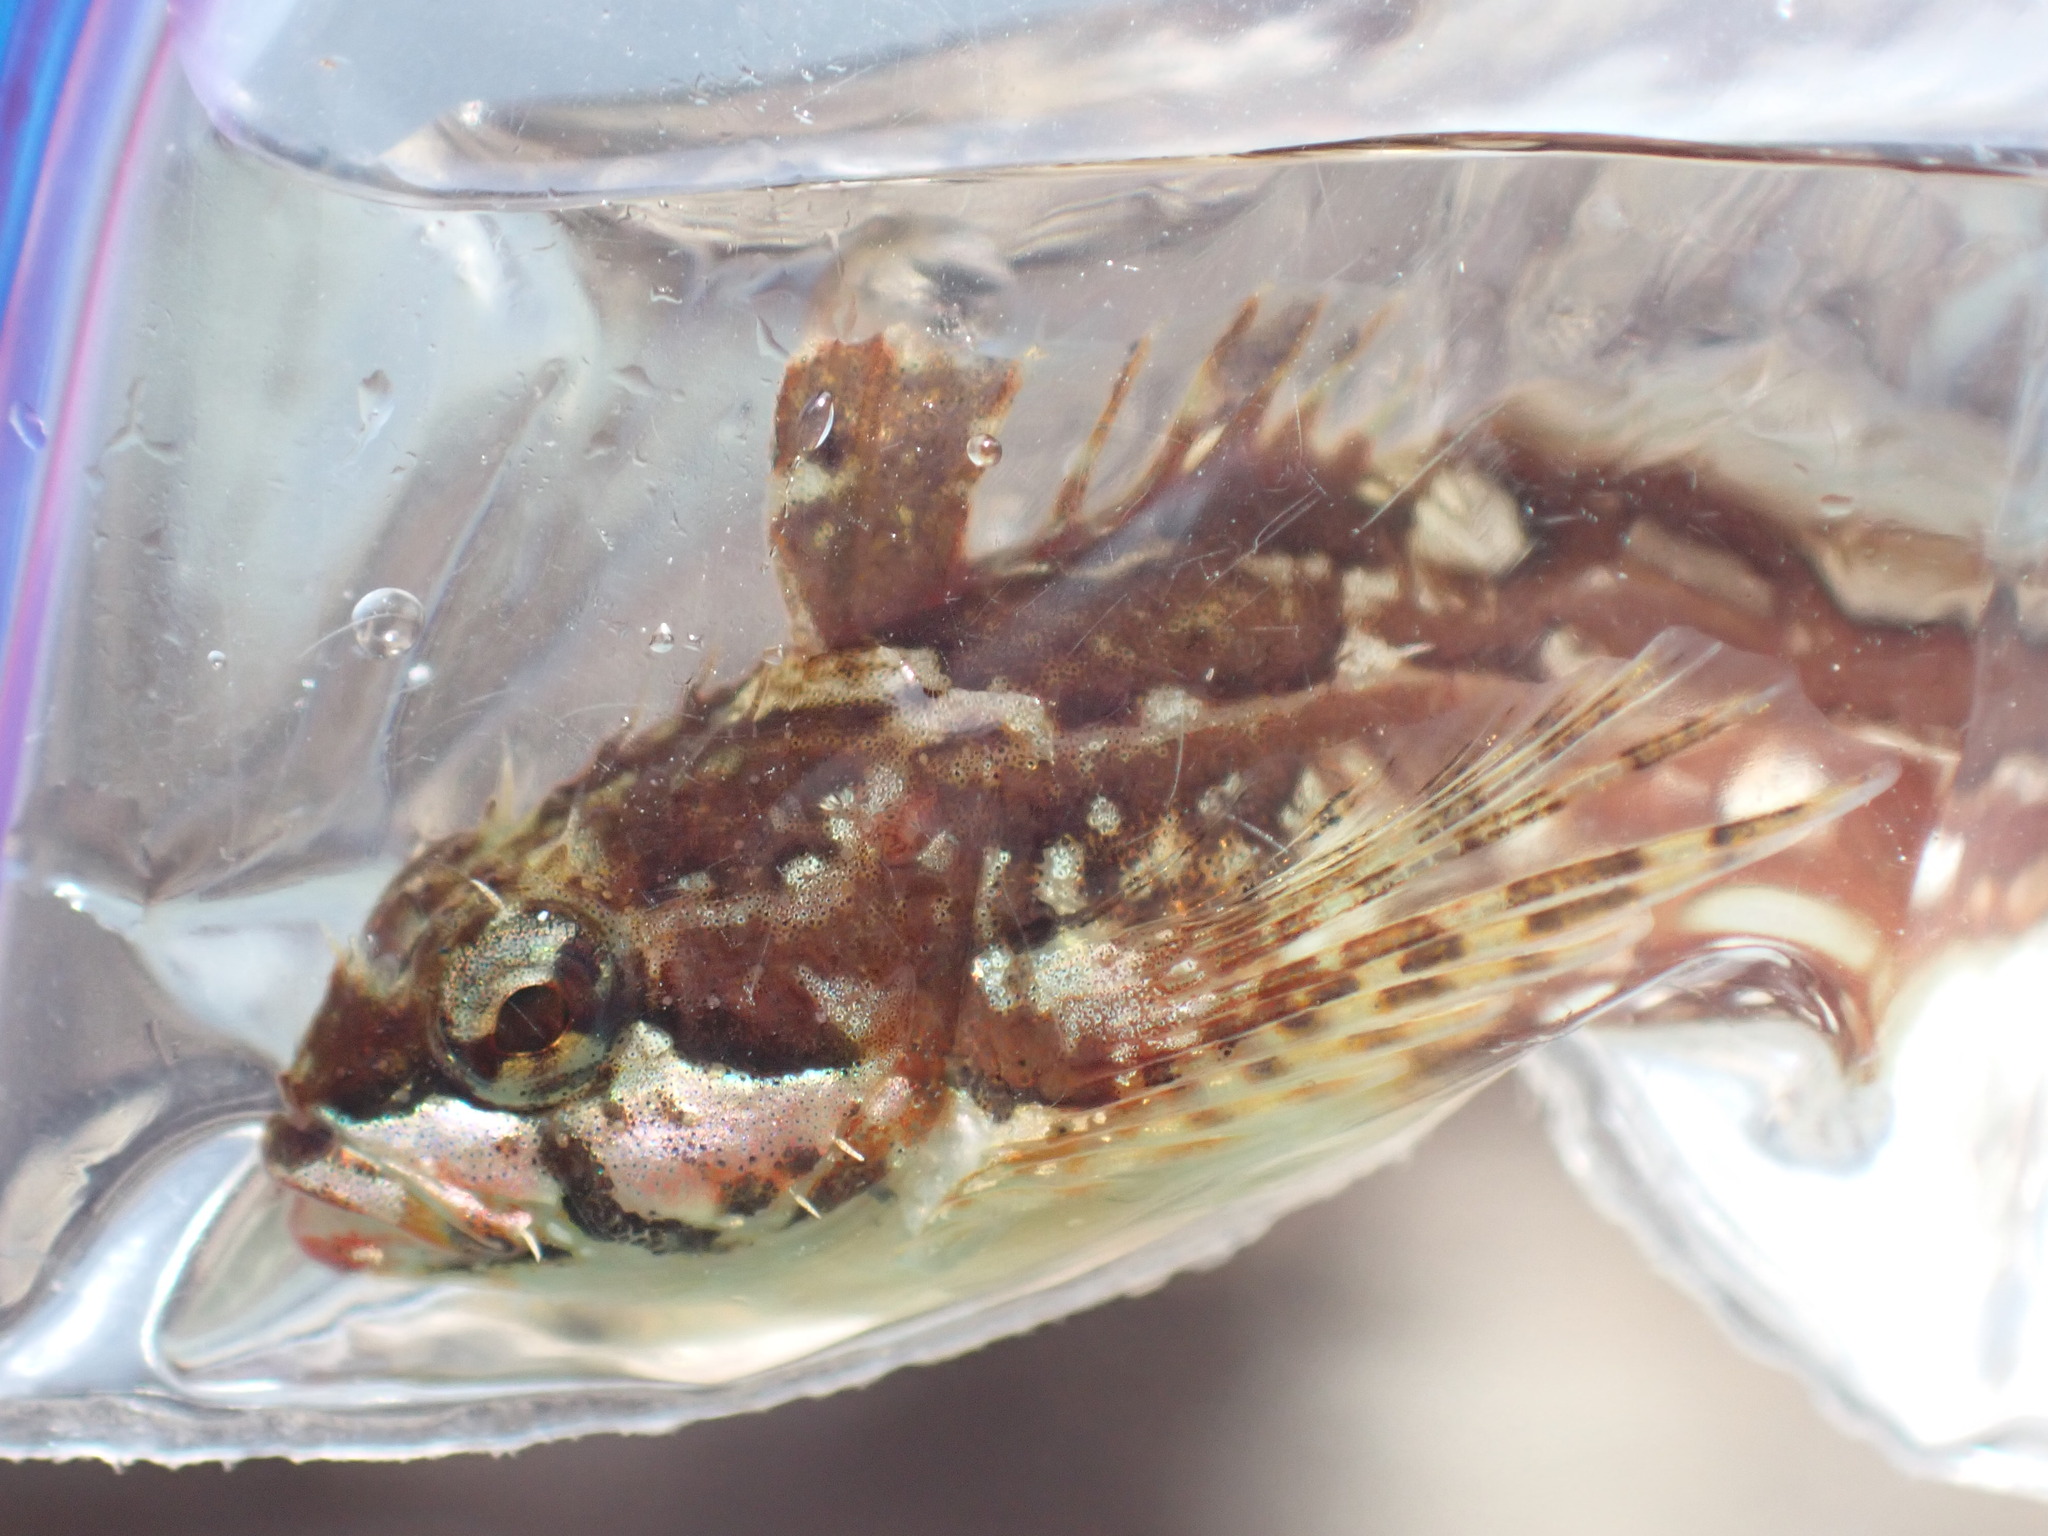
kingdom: Animalia
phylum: Chordata
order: Scorpaeniformes
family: Cottidae
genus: Clinocottus
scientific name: Clinocottus acuticeps
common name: Sharpnose sculpin
